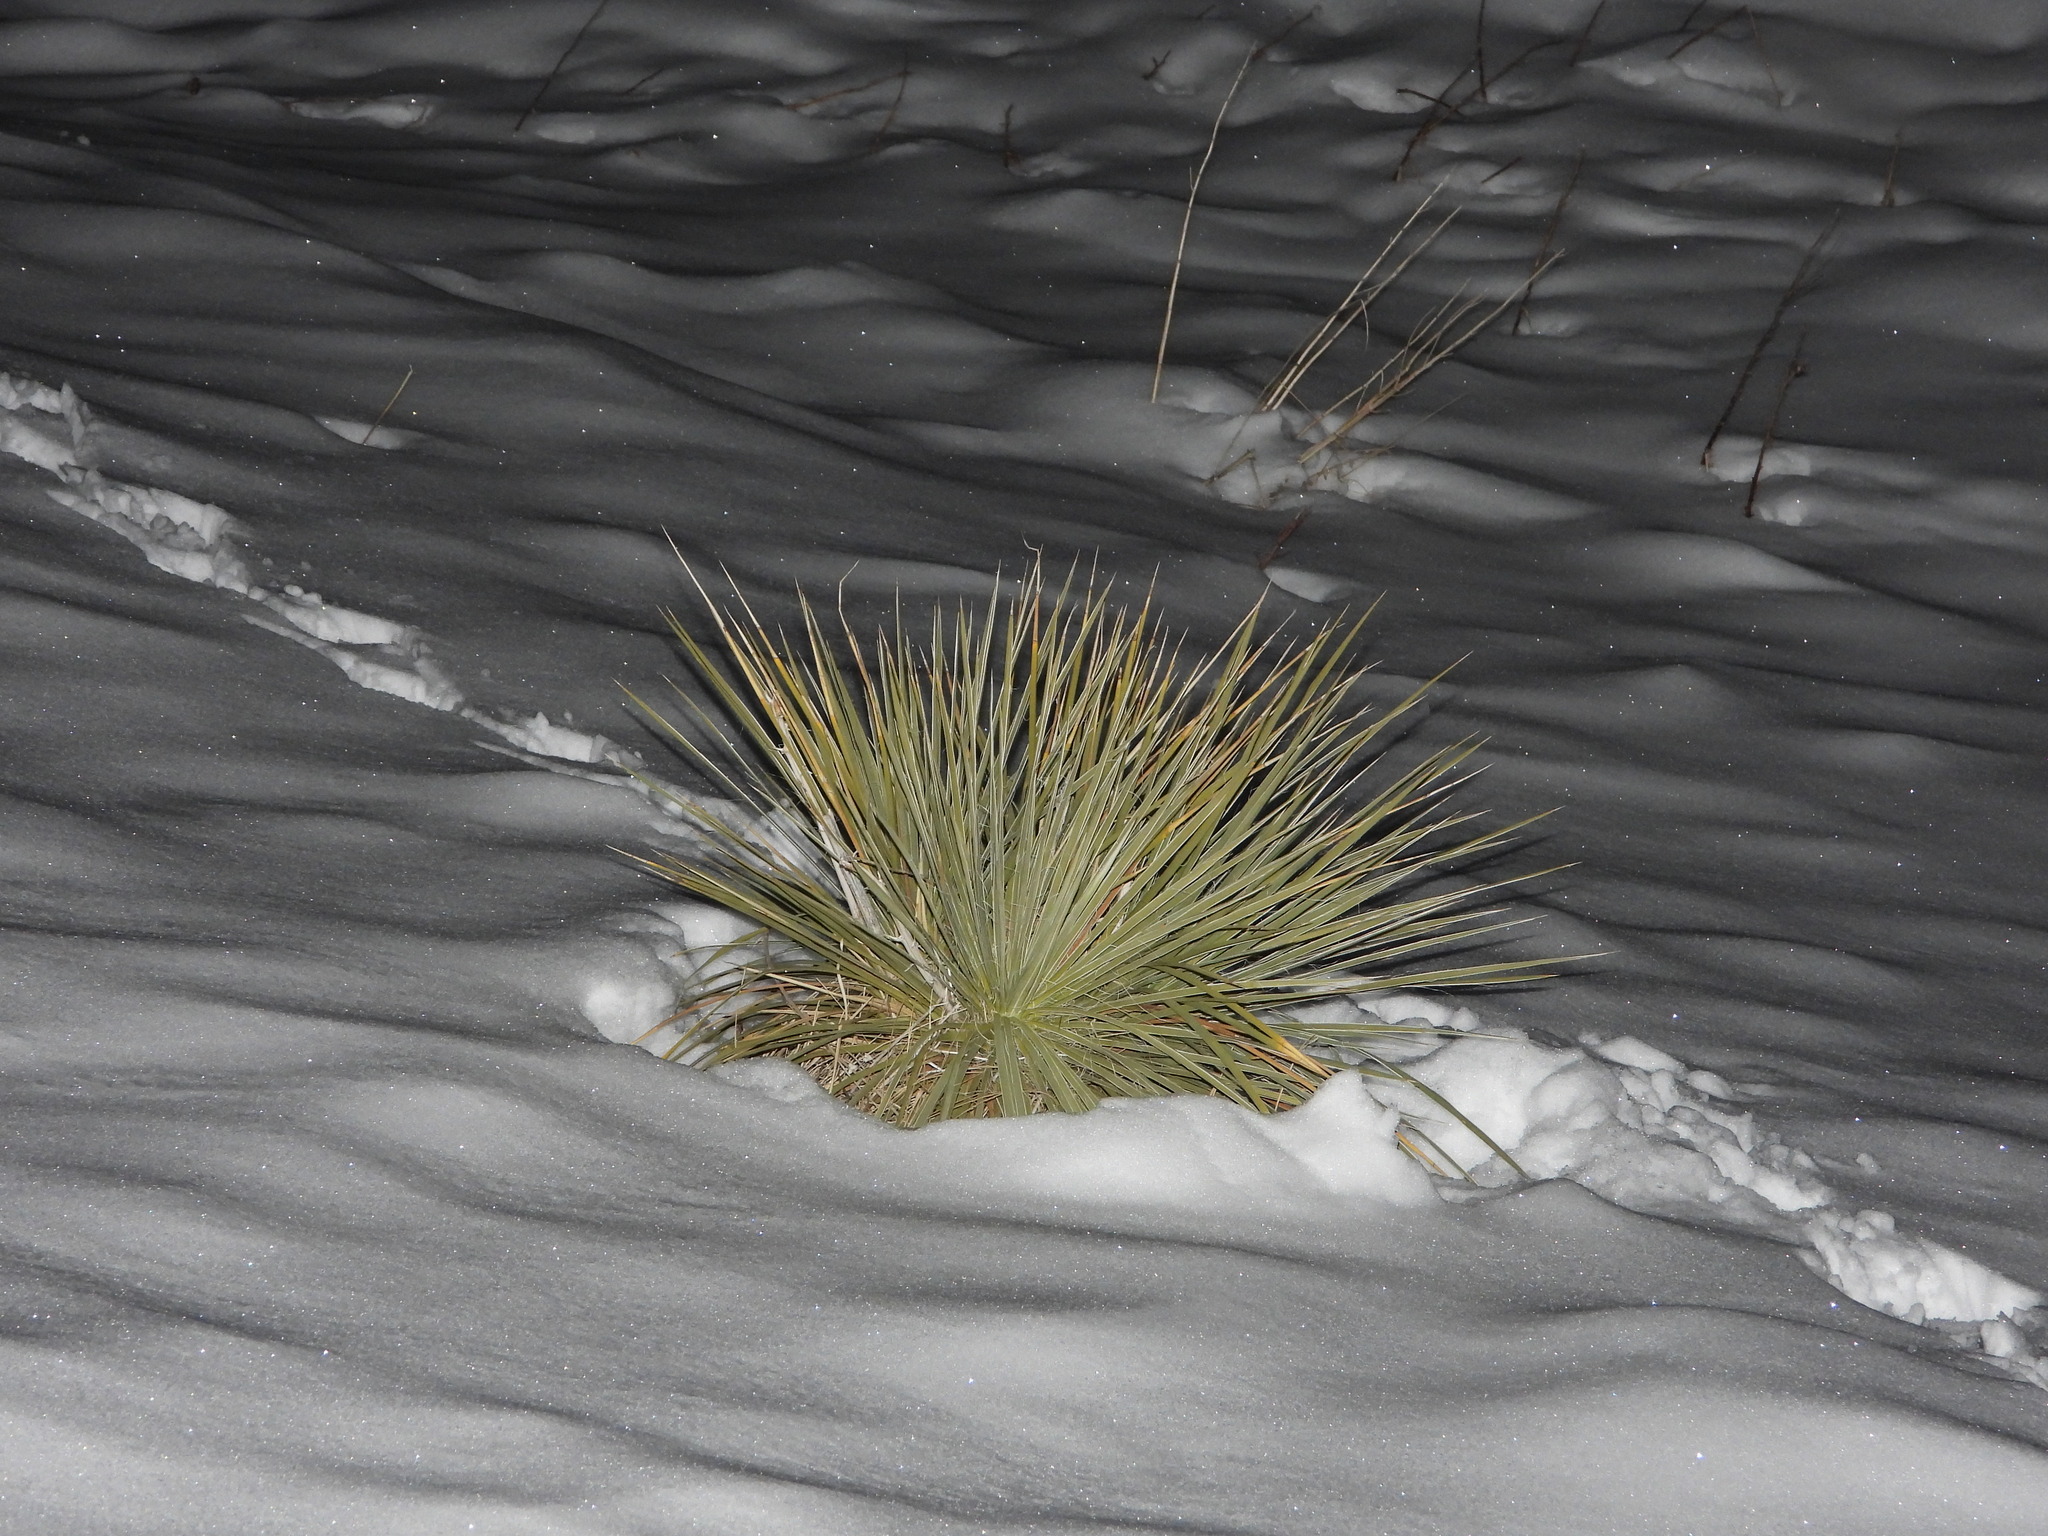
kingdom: Plantae
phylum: Tracheophyta
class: Liliopsida
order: Asparagales
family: Asparagaceae
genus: Yucca
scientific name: Yucca glauca
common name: Great plains yucca
